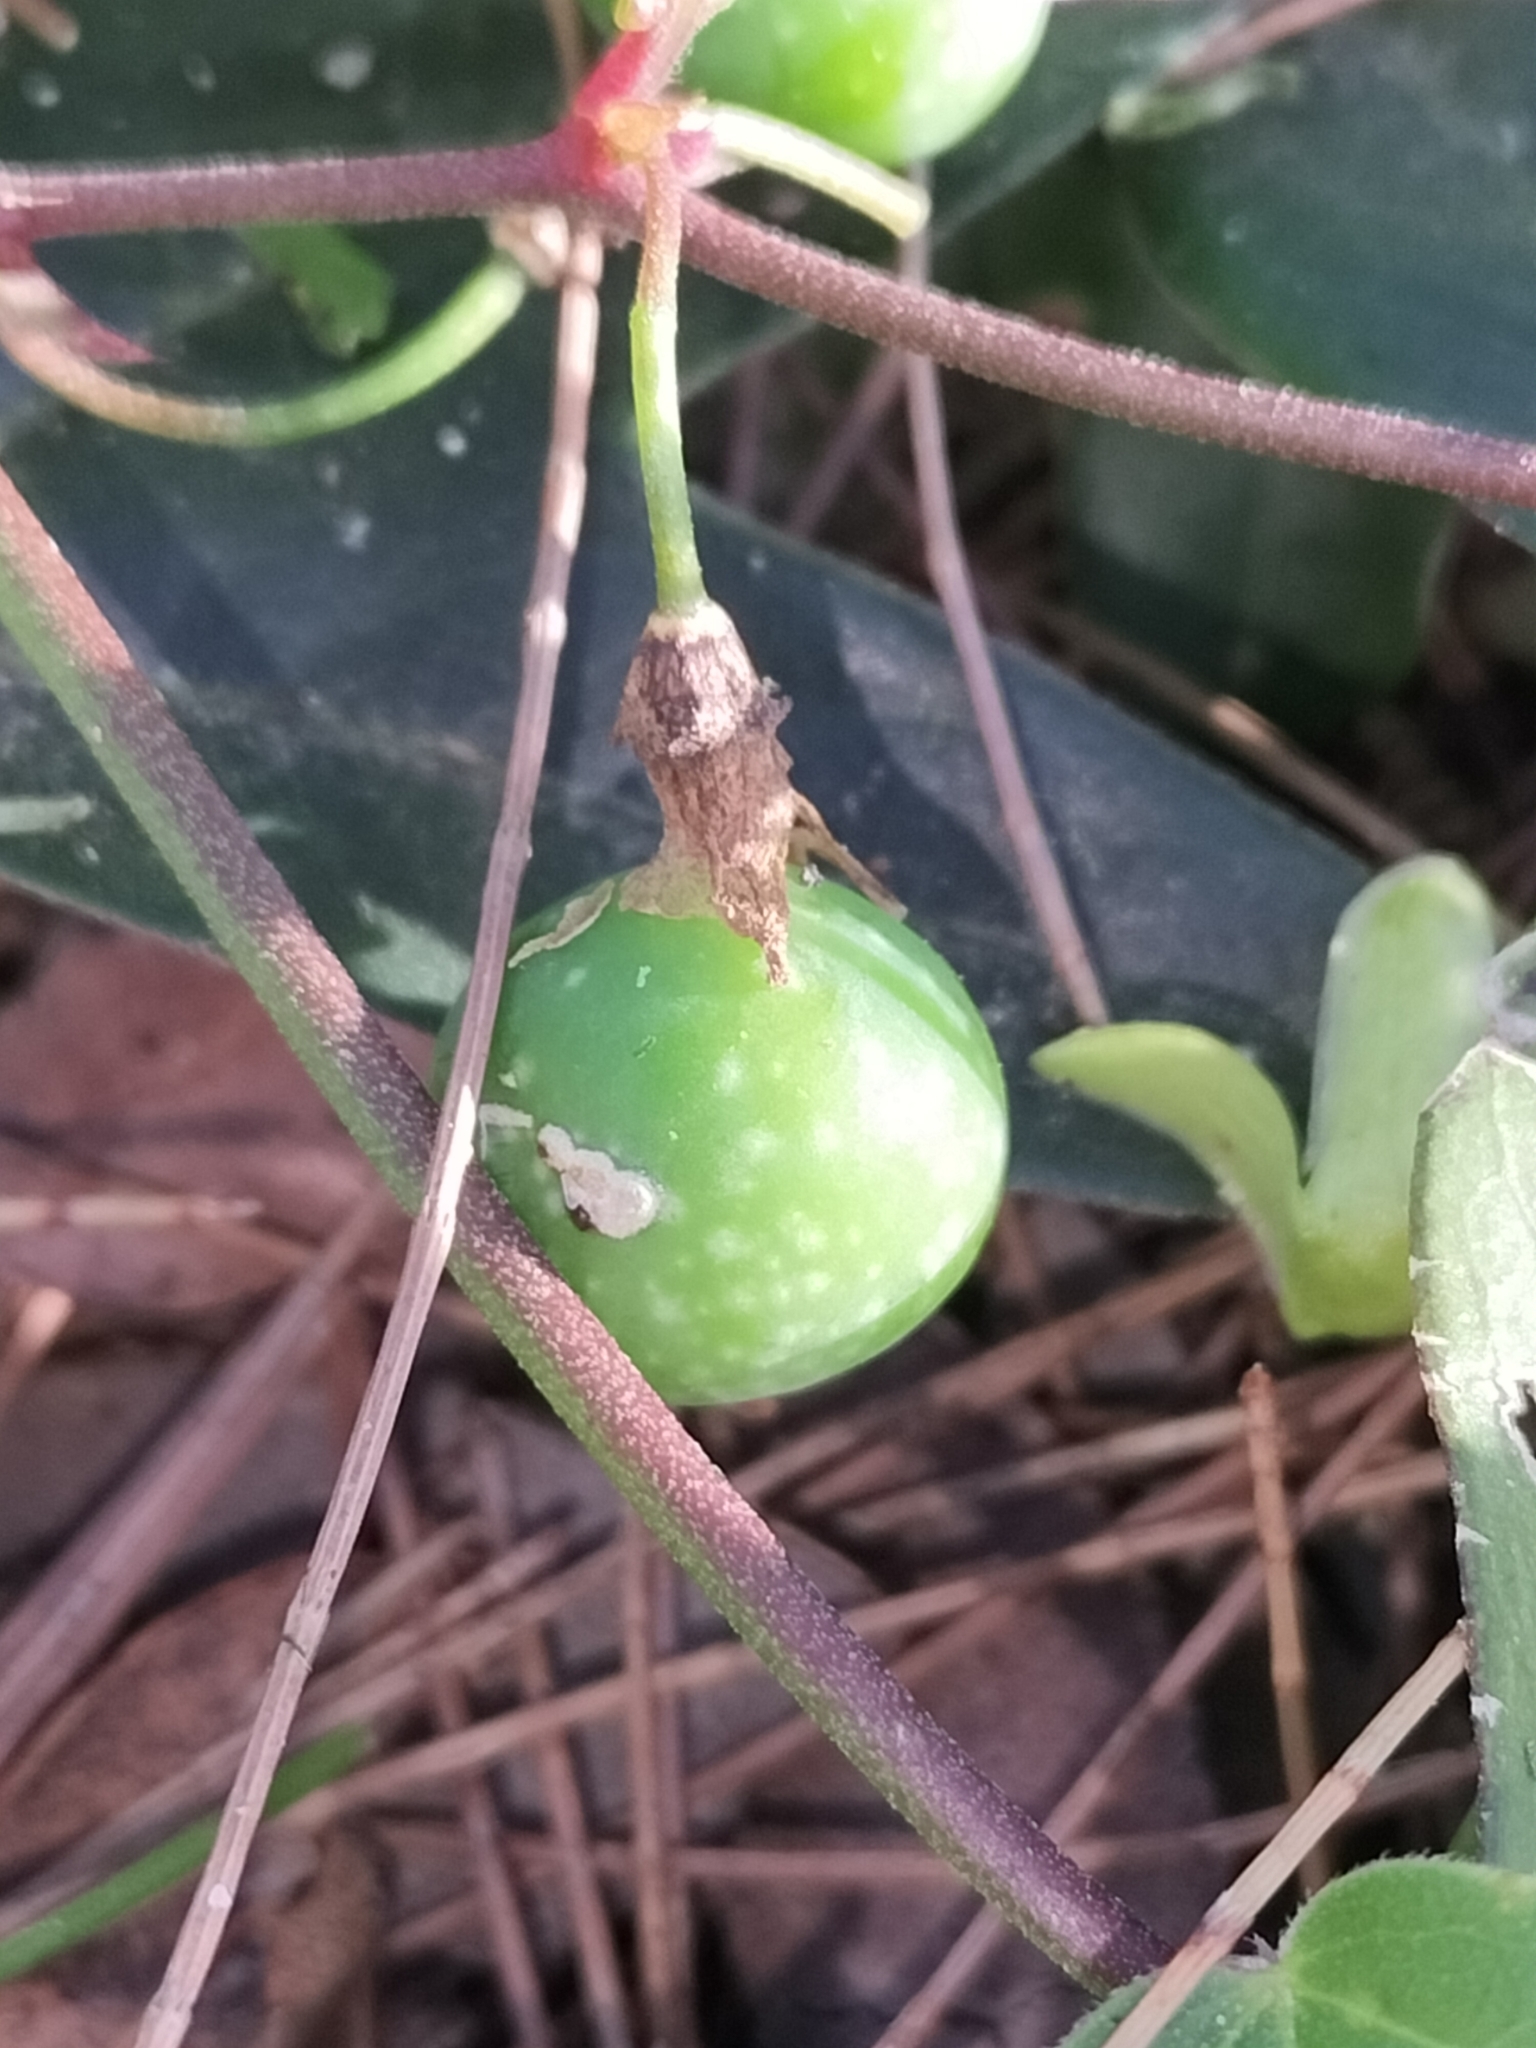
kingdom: Plantae
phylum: Tracheophyta
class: Magnoliopsida
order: Malpighiales
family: Passifloraceae
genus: Passiflora
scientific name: Passiflora suberosa
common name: Wild passionfruit
